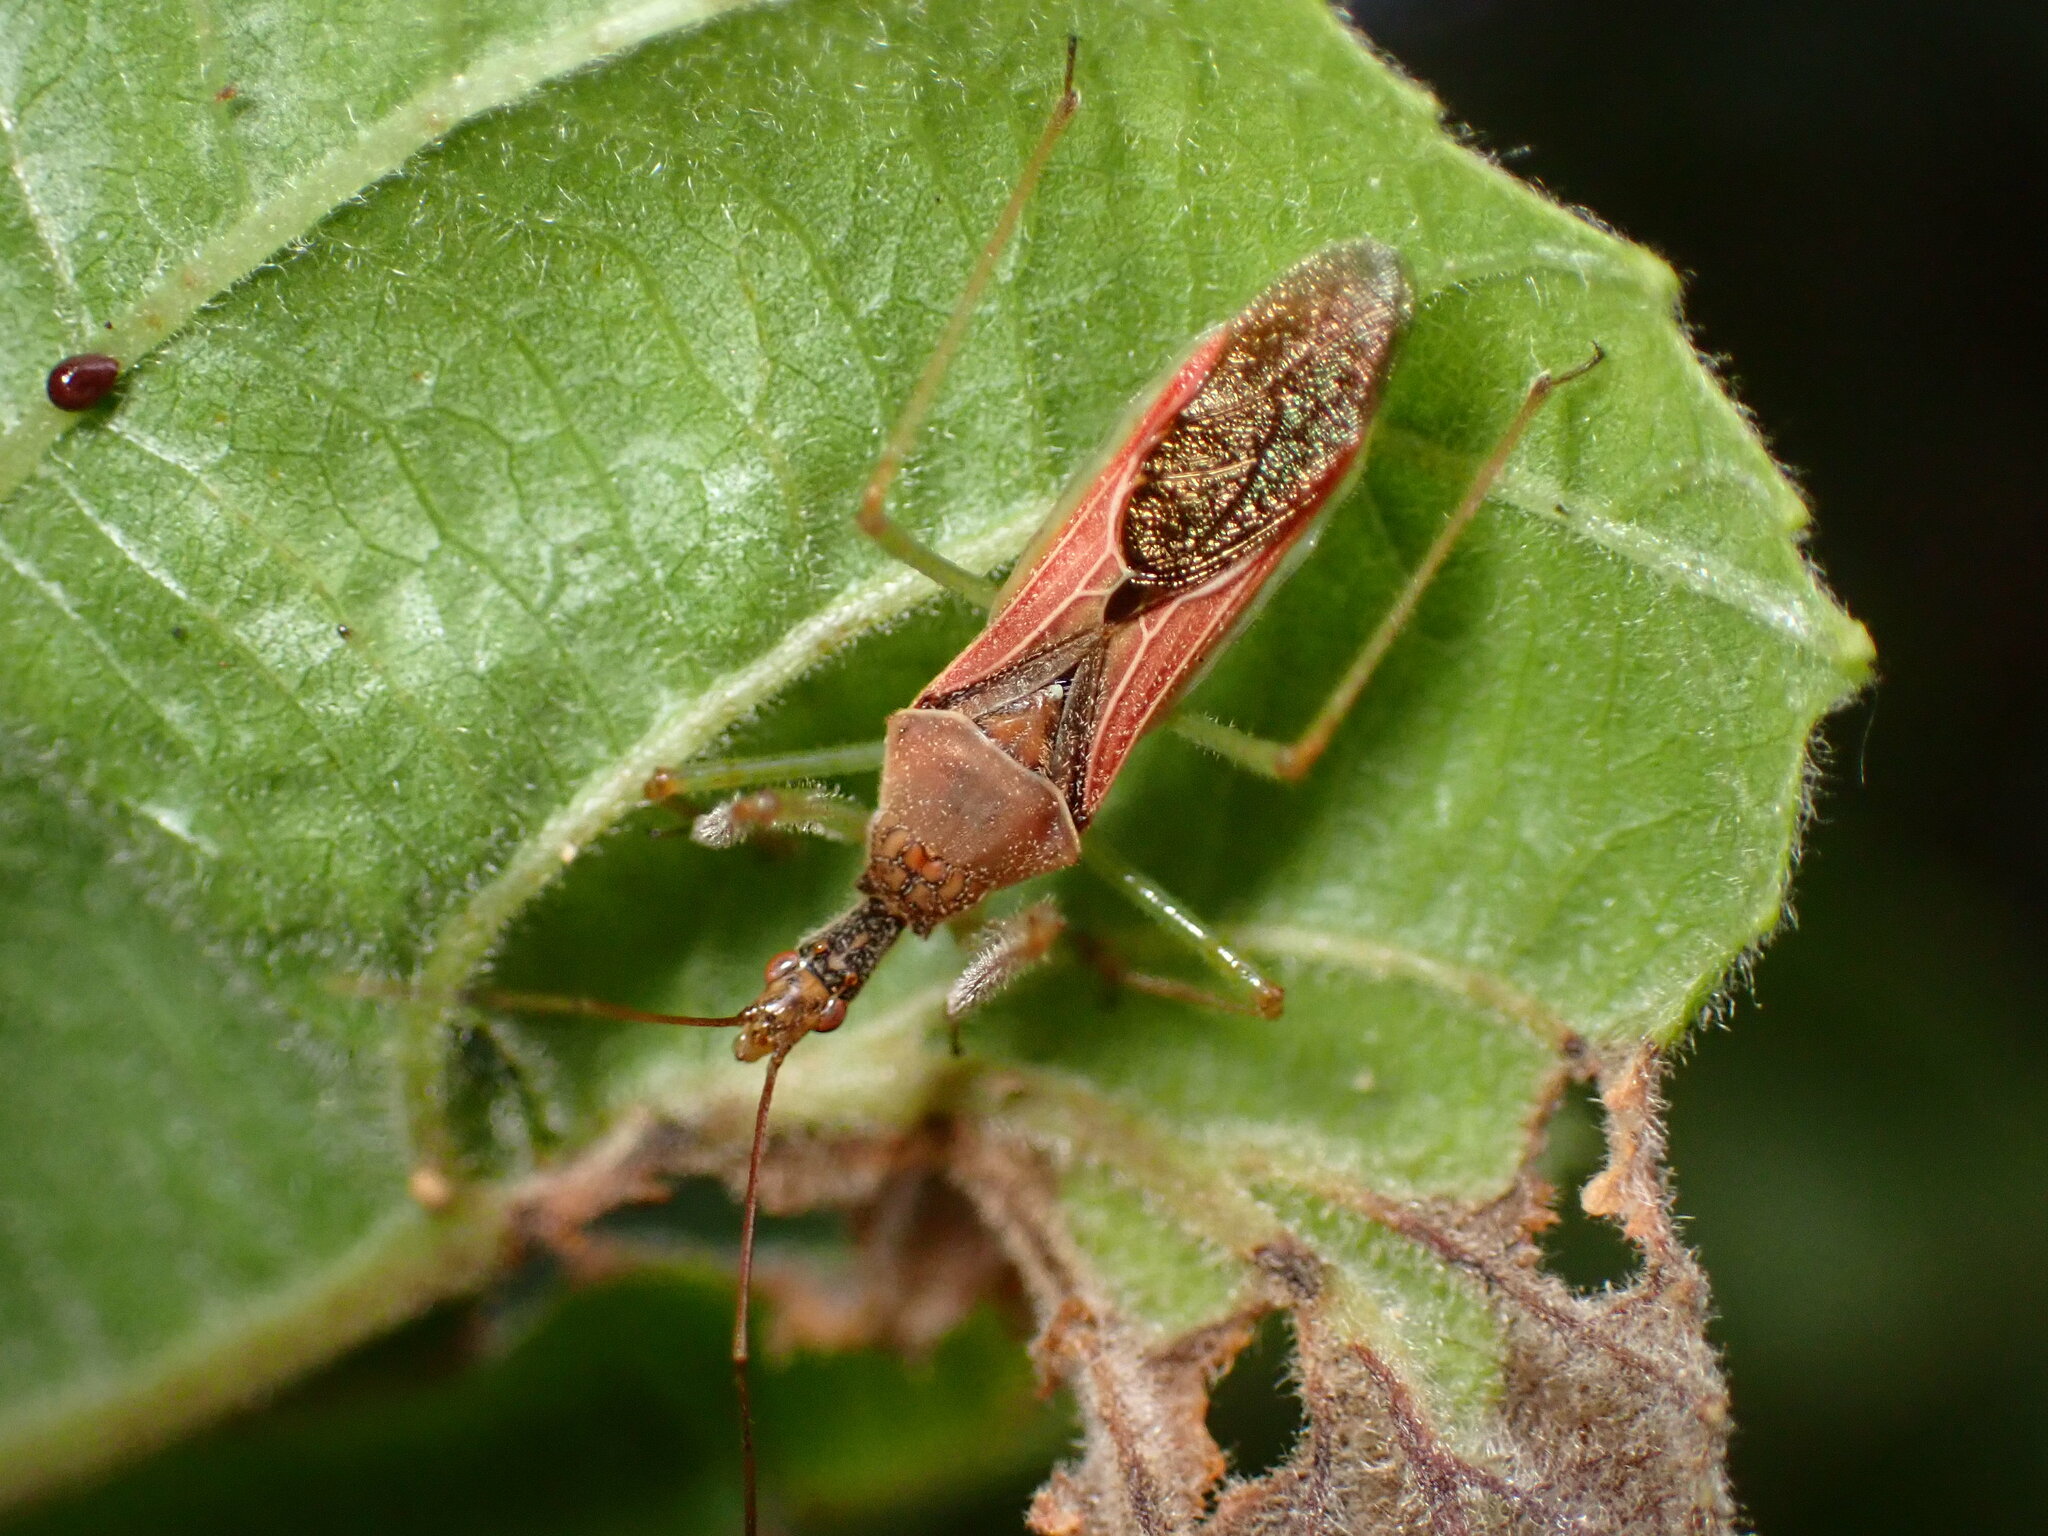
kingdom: Animalia
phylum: Arthropoda
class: Insecta
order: Hemiptera
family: Reduviidae
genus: Zelus
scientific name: Zelus renardii
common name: Assassin bug
